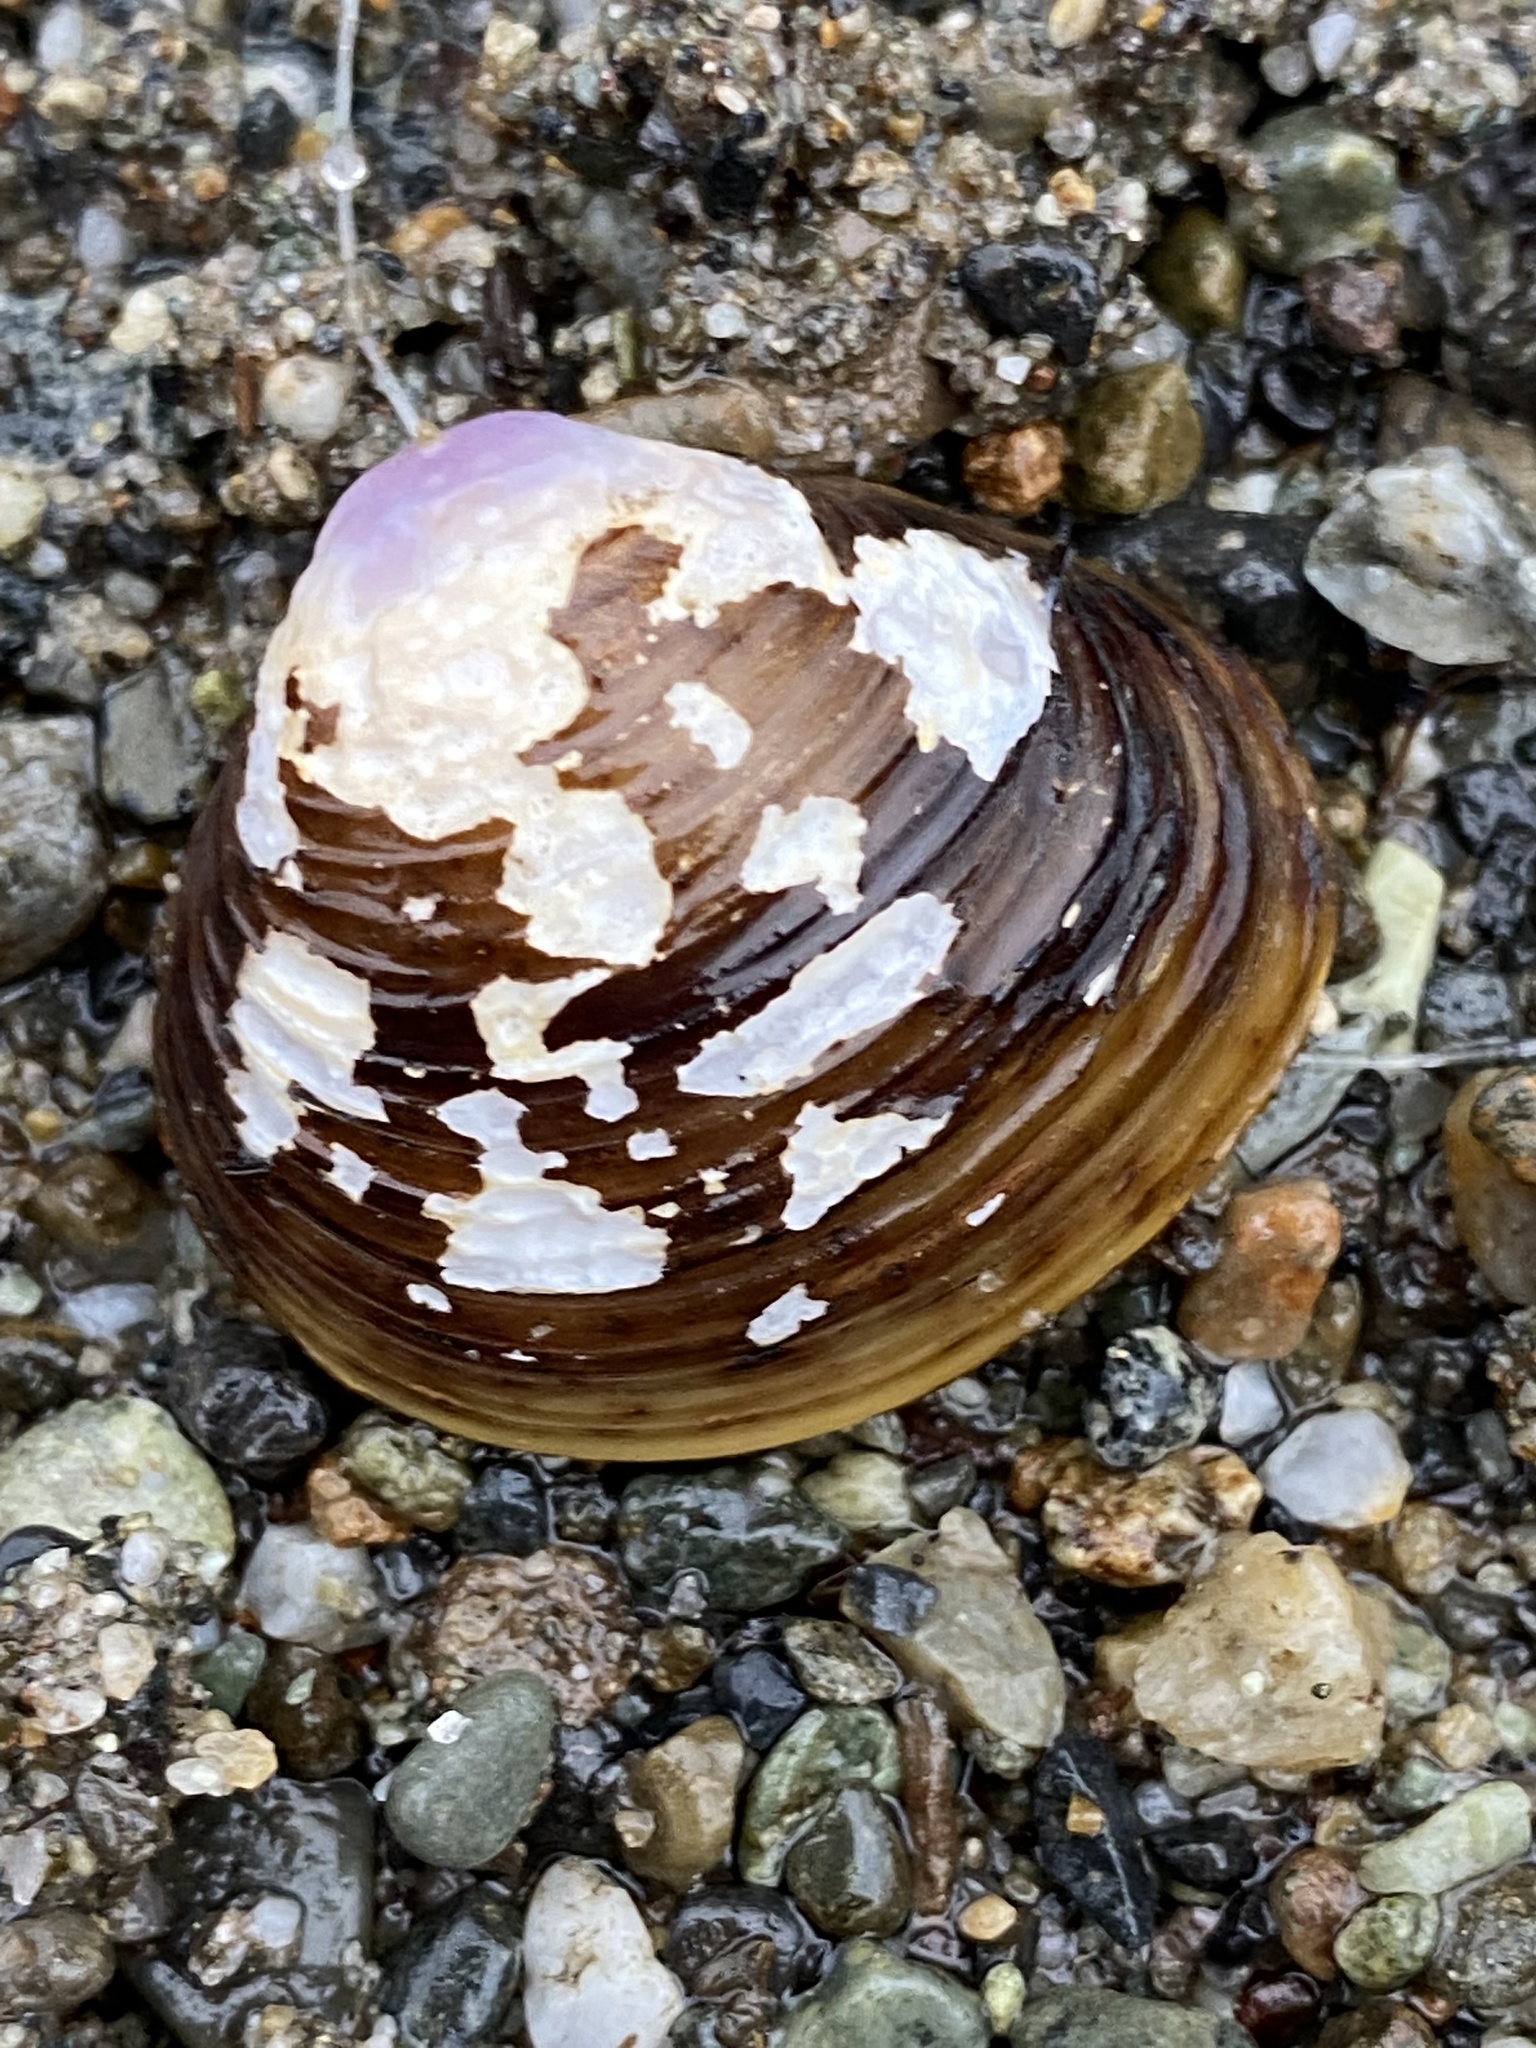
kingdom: Animalia
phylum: Mollusca
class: Bivalvia
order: Venerida
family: Cyrenidae
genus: Corbicula
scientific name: Corbicula fluminea
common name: Asian clam
